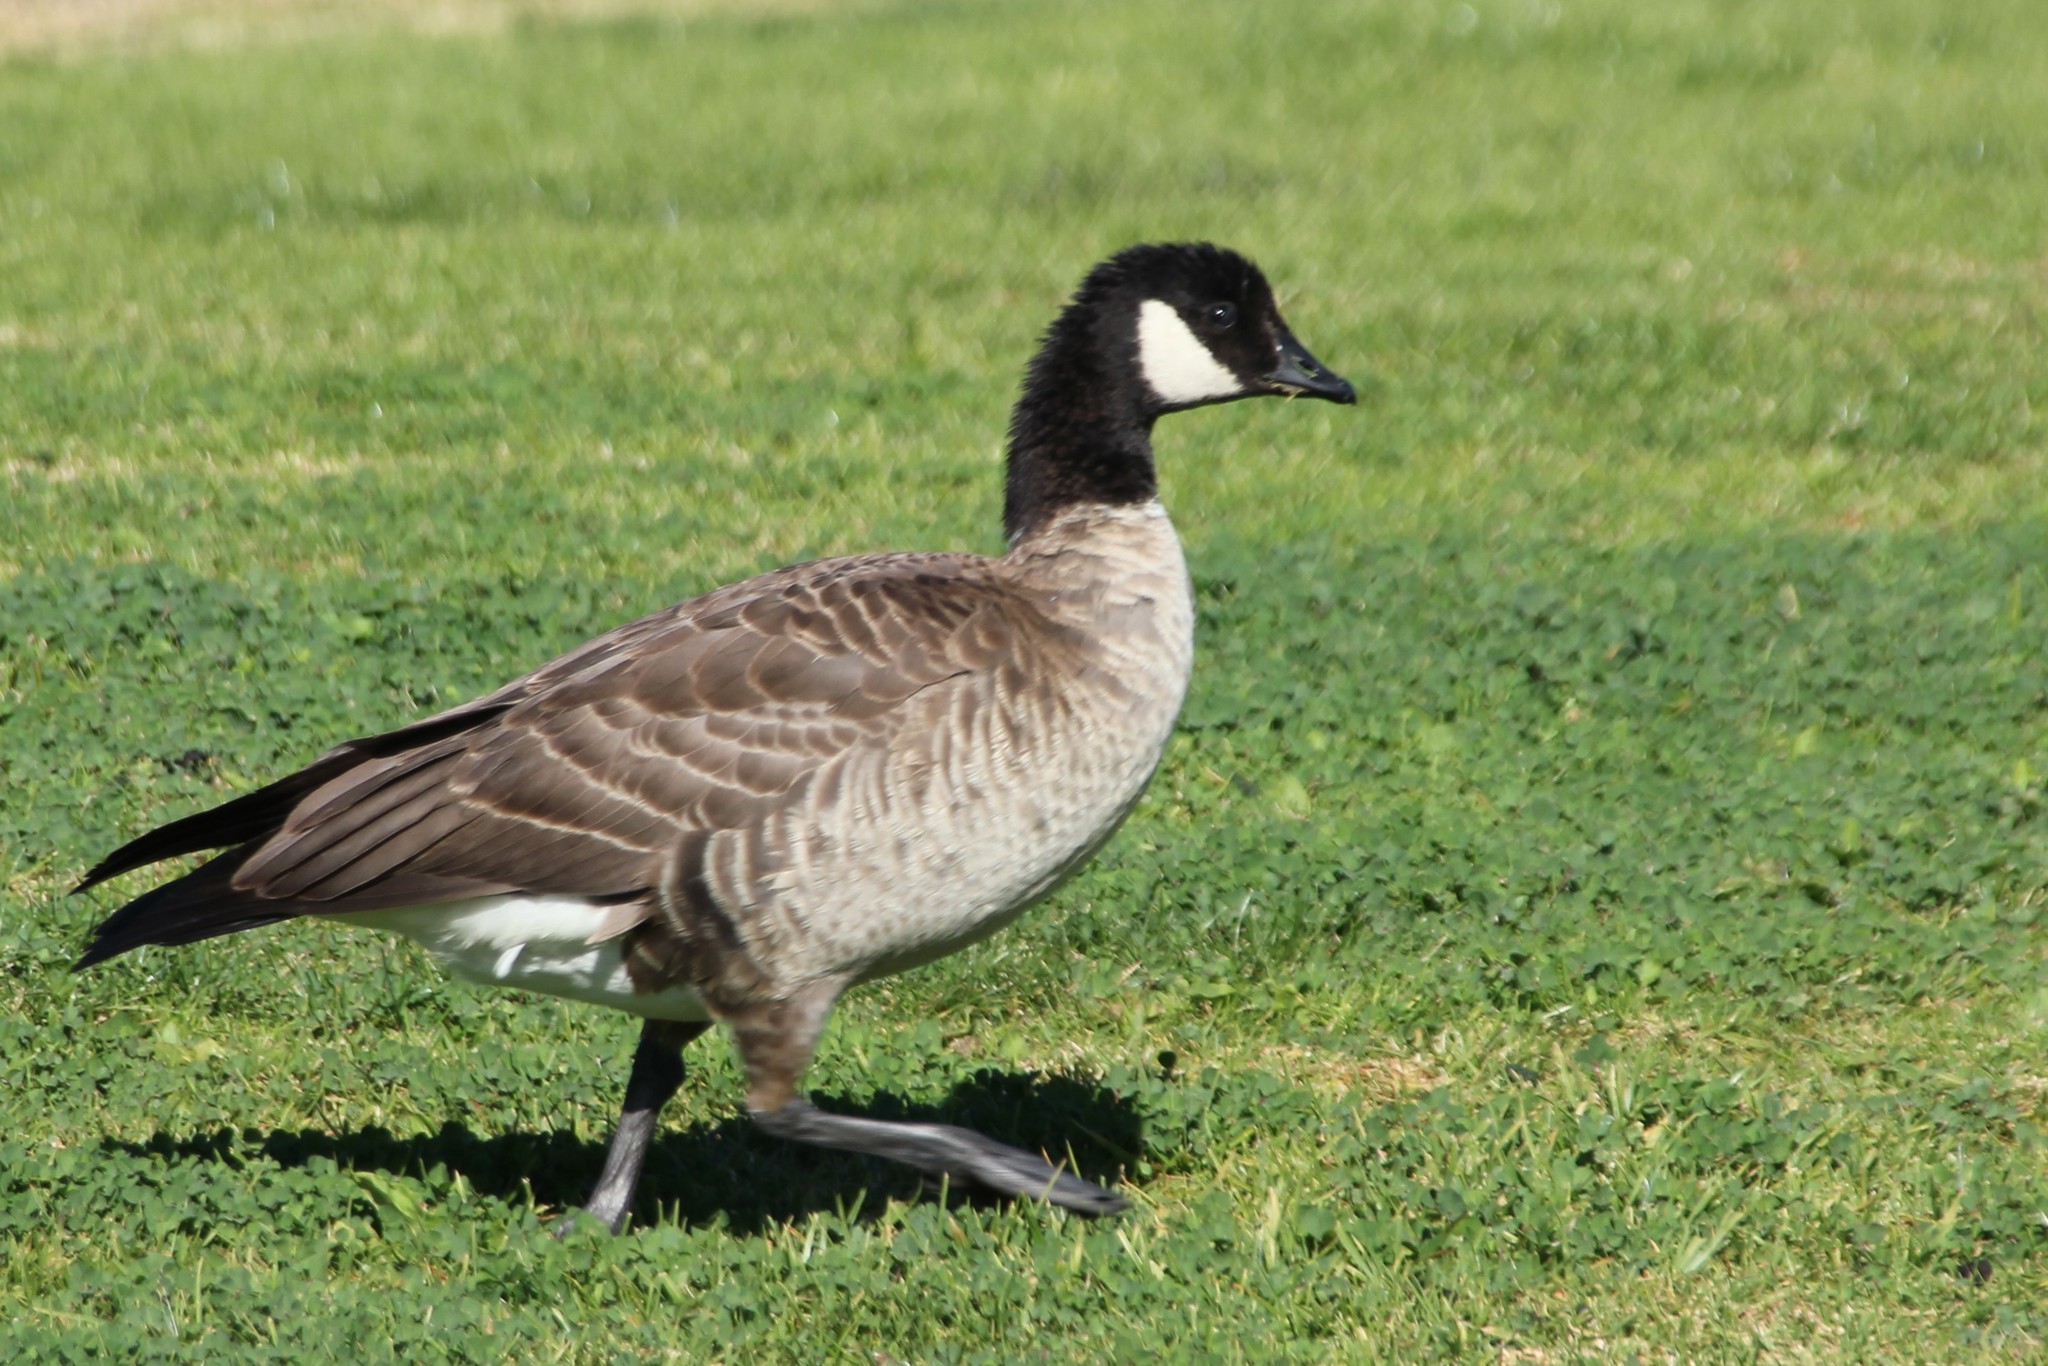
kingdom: Animalia
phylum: Chordata
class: Aves
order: Anseriformes
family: Anatidae
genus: Branta
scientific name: Branta hutchinsii
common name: Cackling goose
